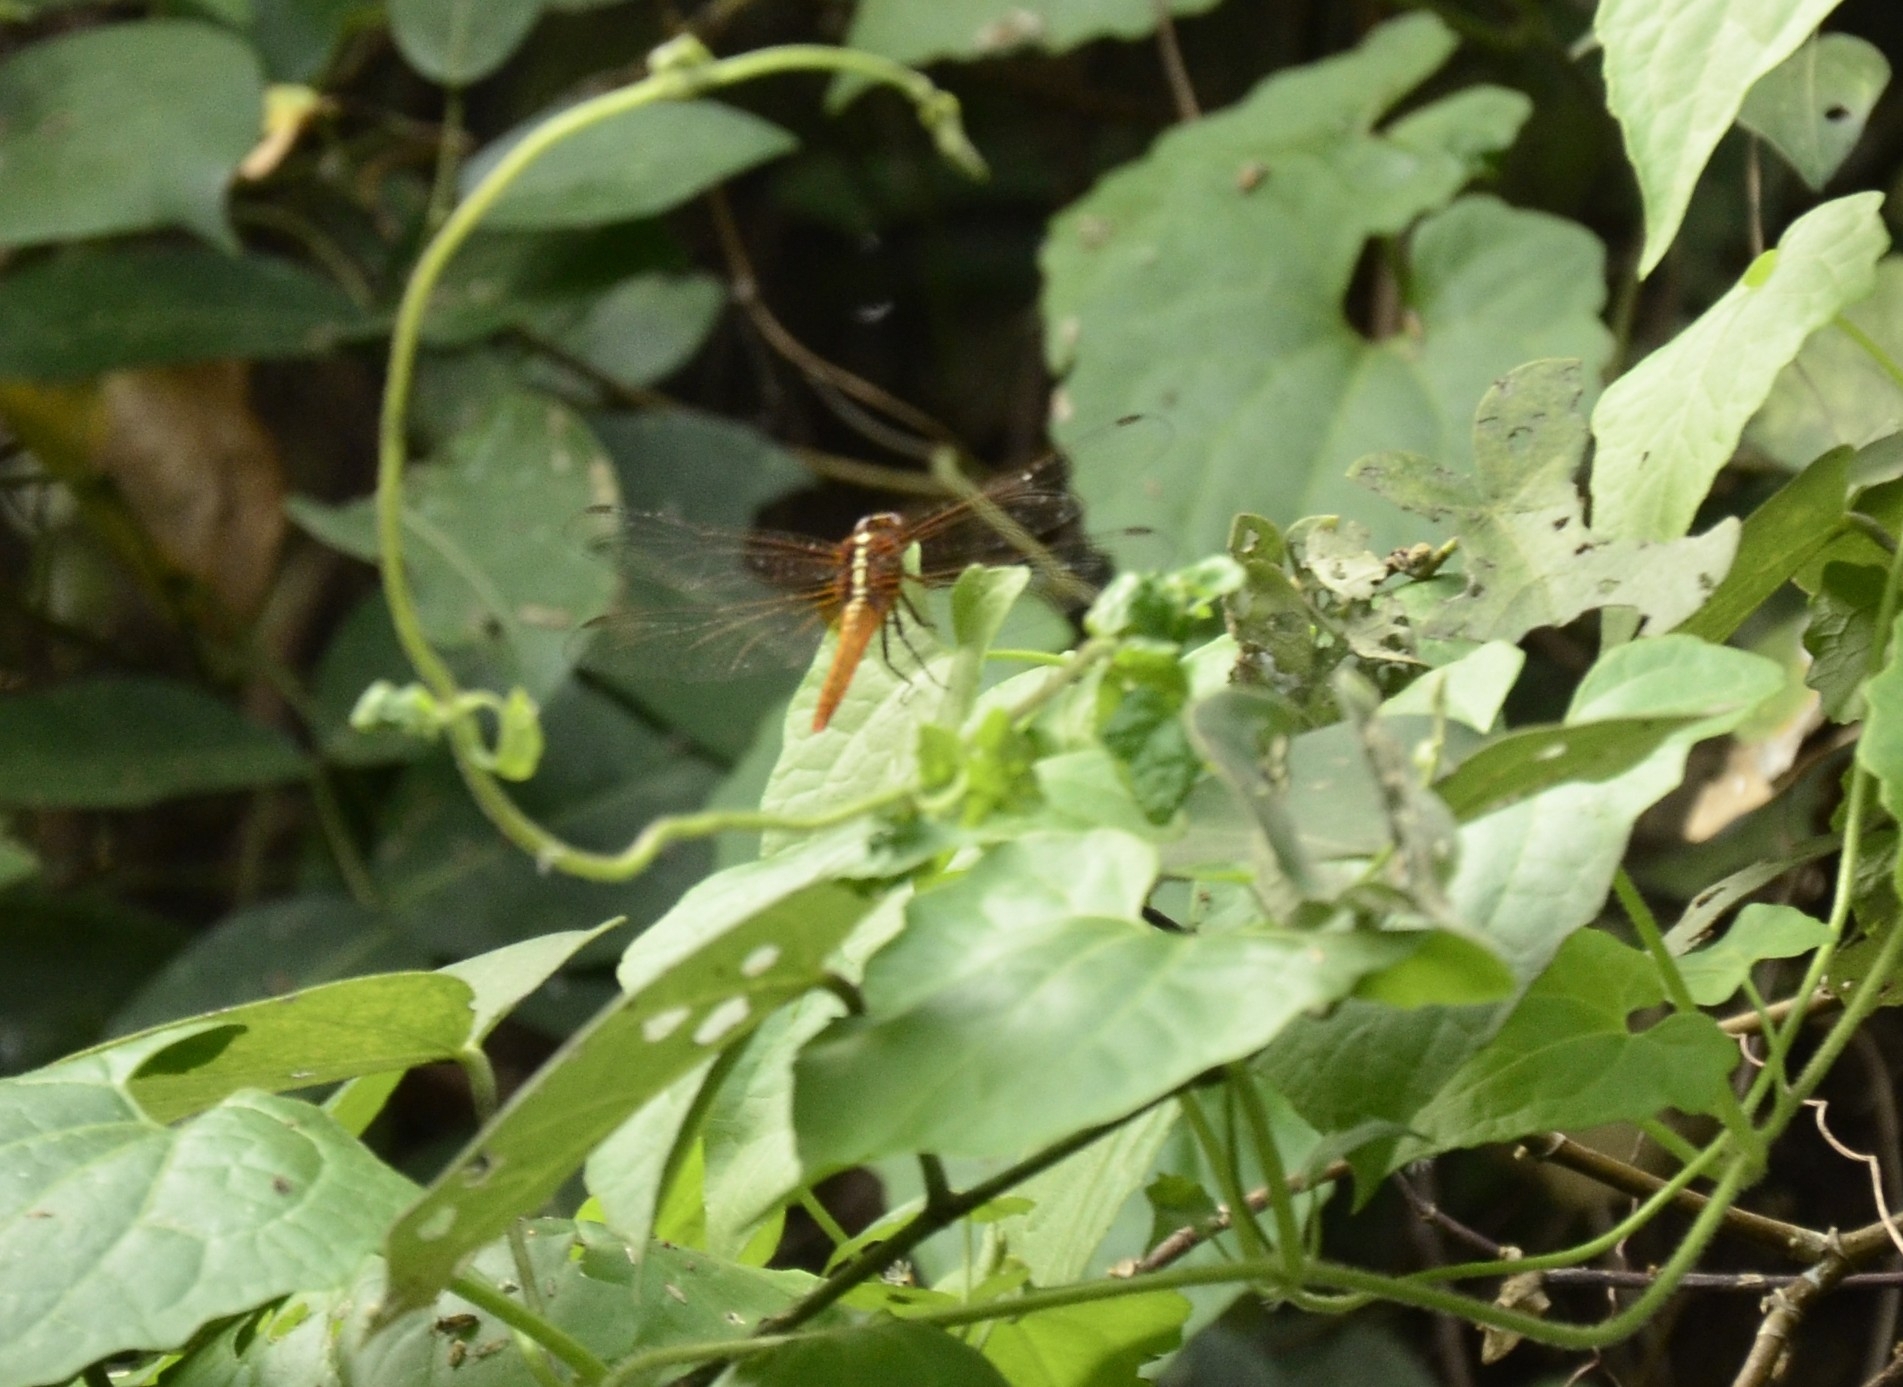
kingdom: Animalia
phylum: Arthropoda
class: Insecta
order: Odonata
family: Libellulidae
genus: Rhodothemis
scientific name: Rhodothemis rufa
